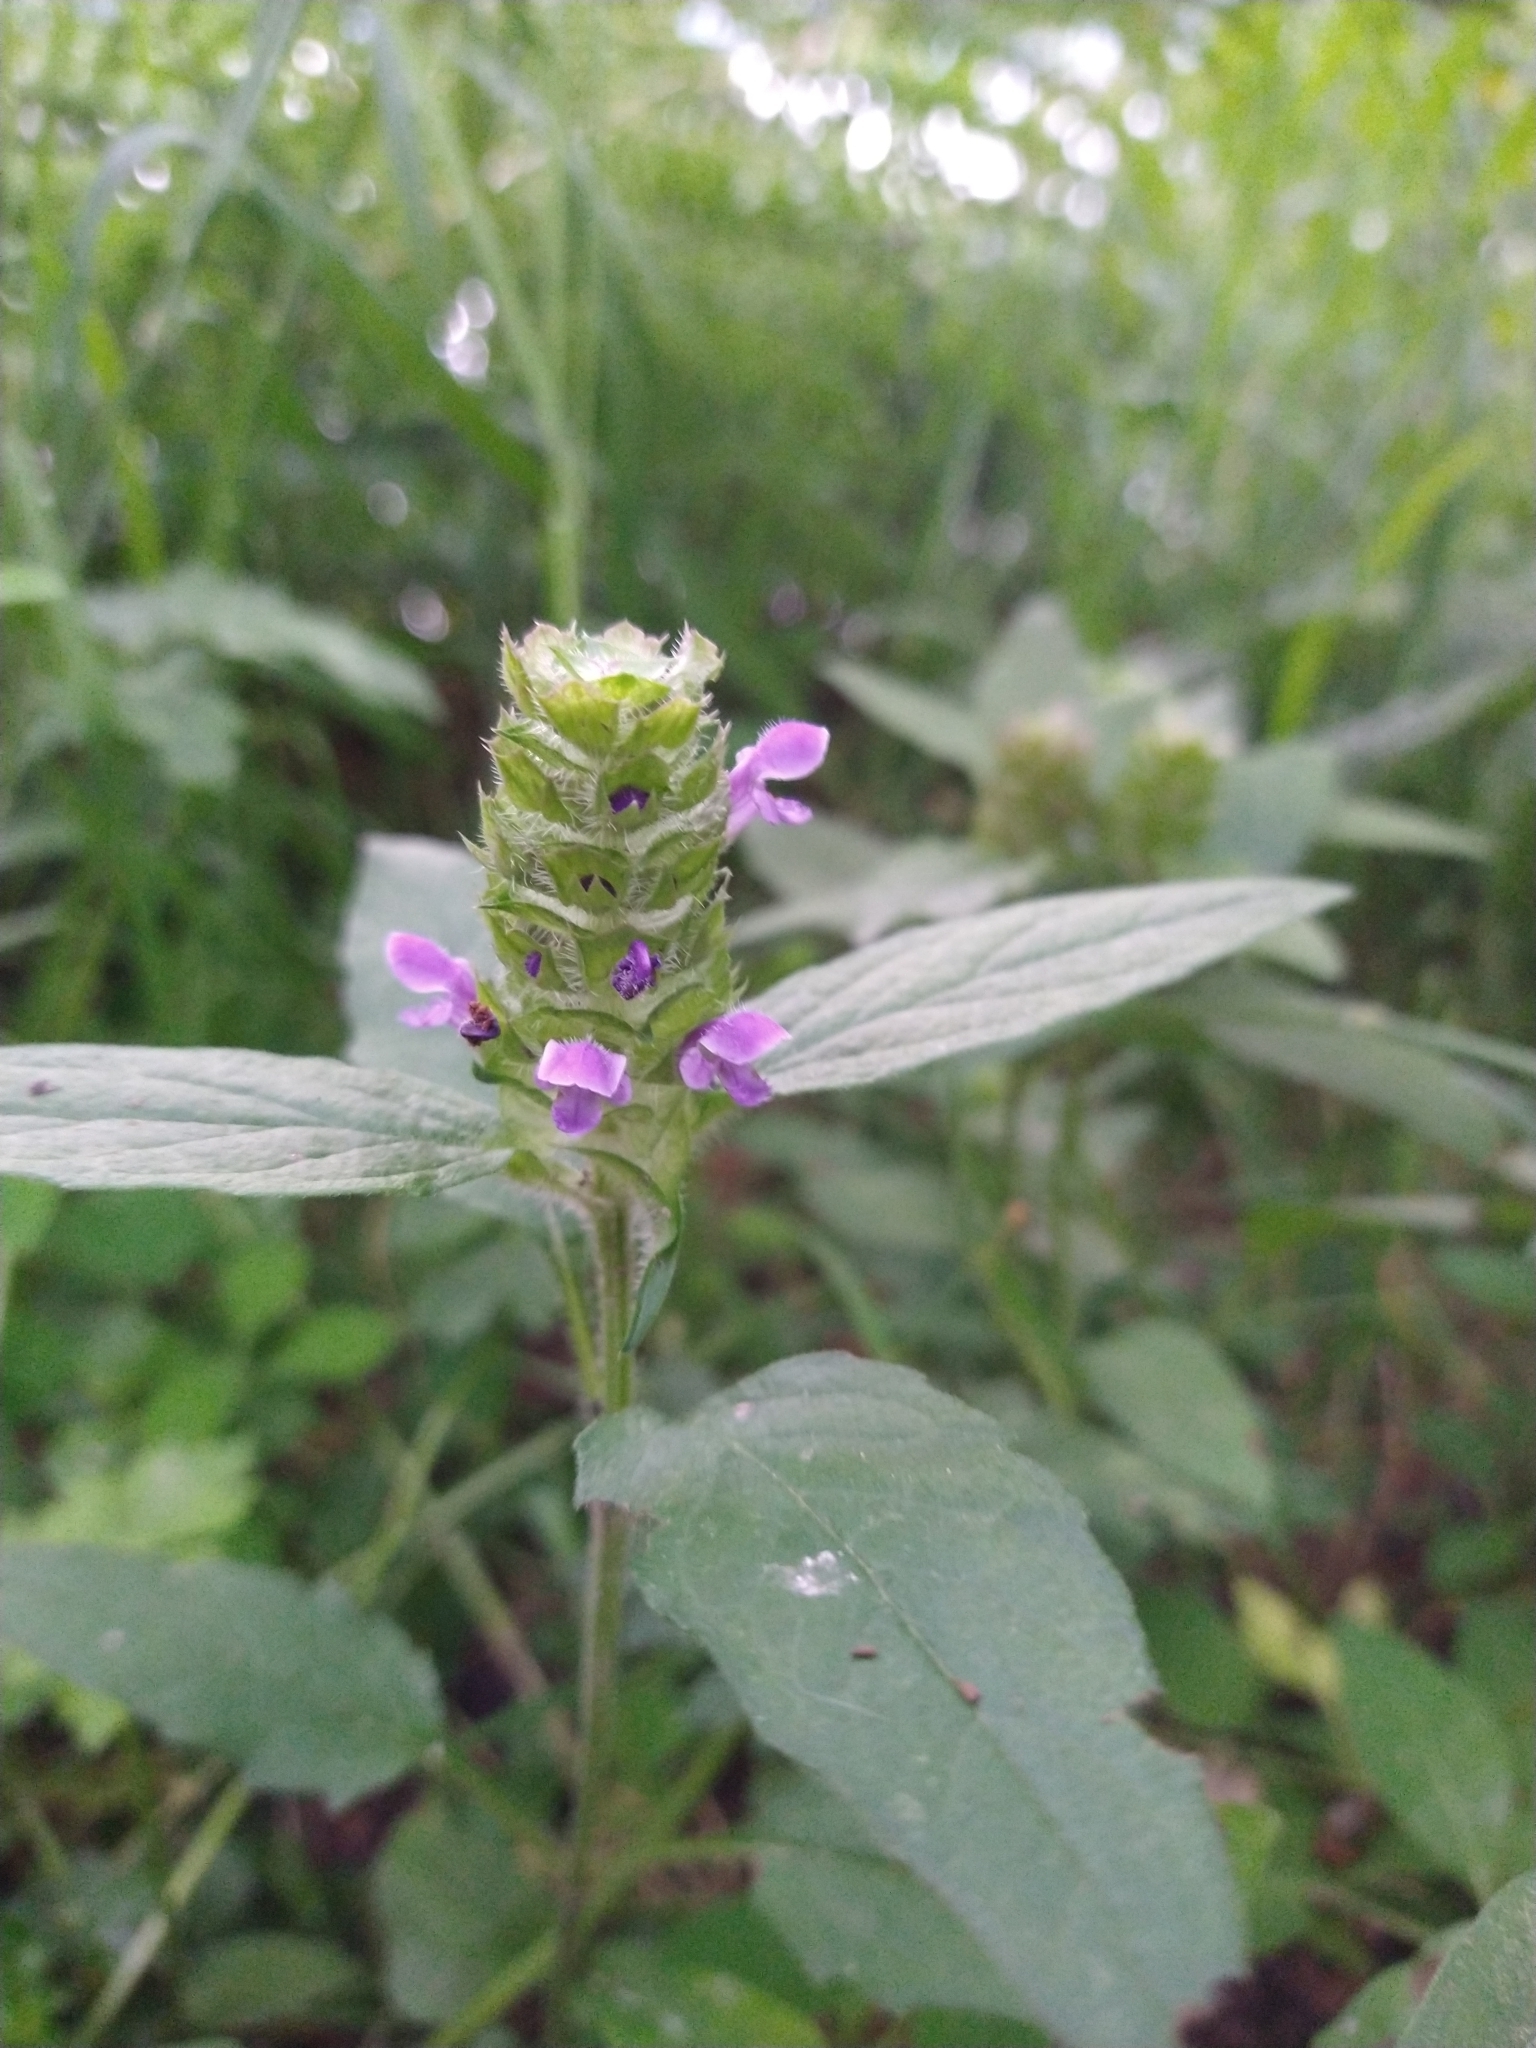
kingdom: Plantae
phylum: Tracheophyta
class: Magnoliopsida
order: Lamiales
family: Lamiaceae
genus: Prunella
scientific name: Prunella vulgaris
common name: Heal-all
